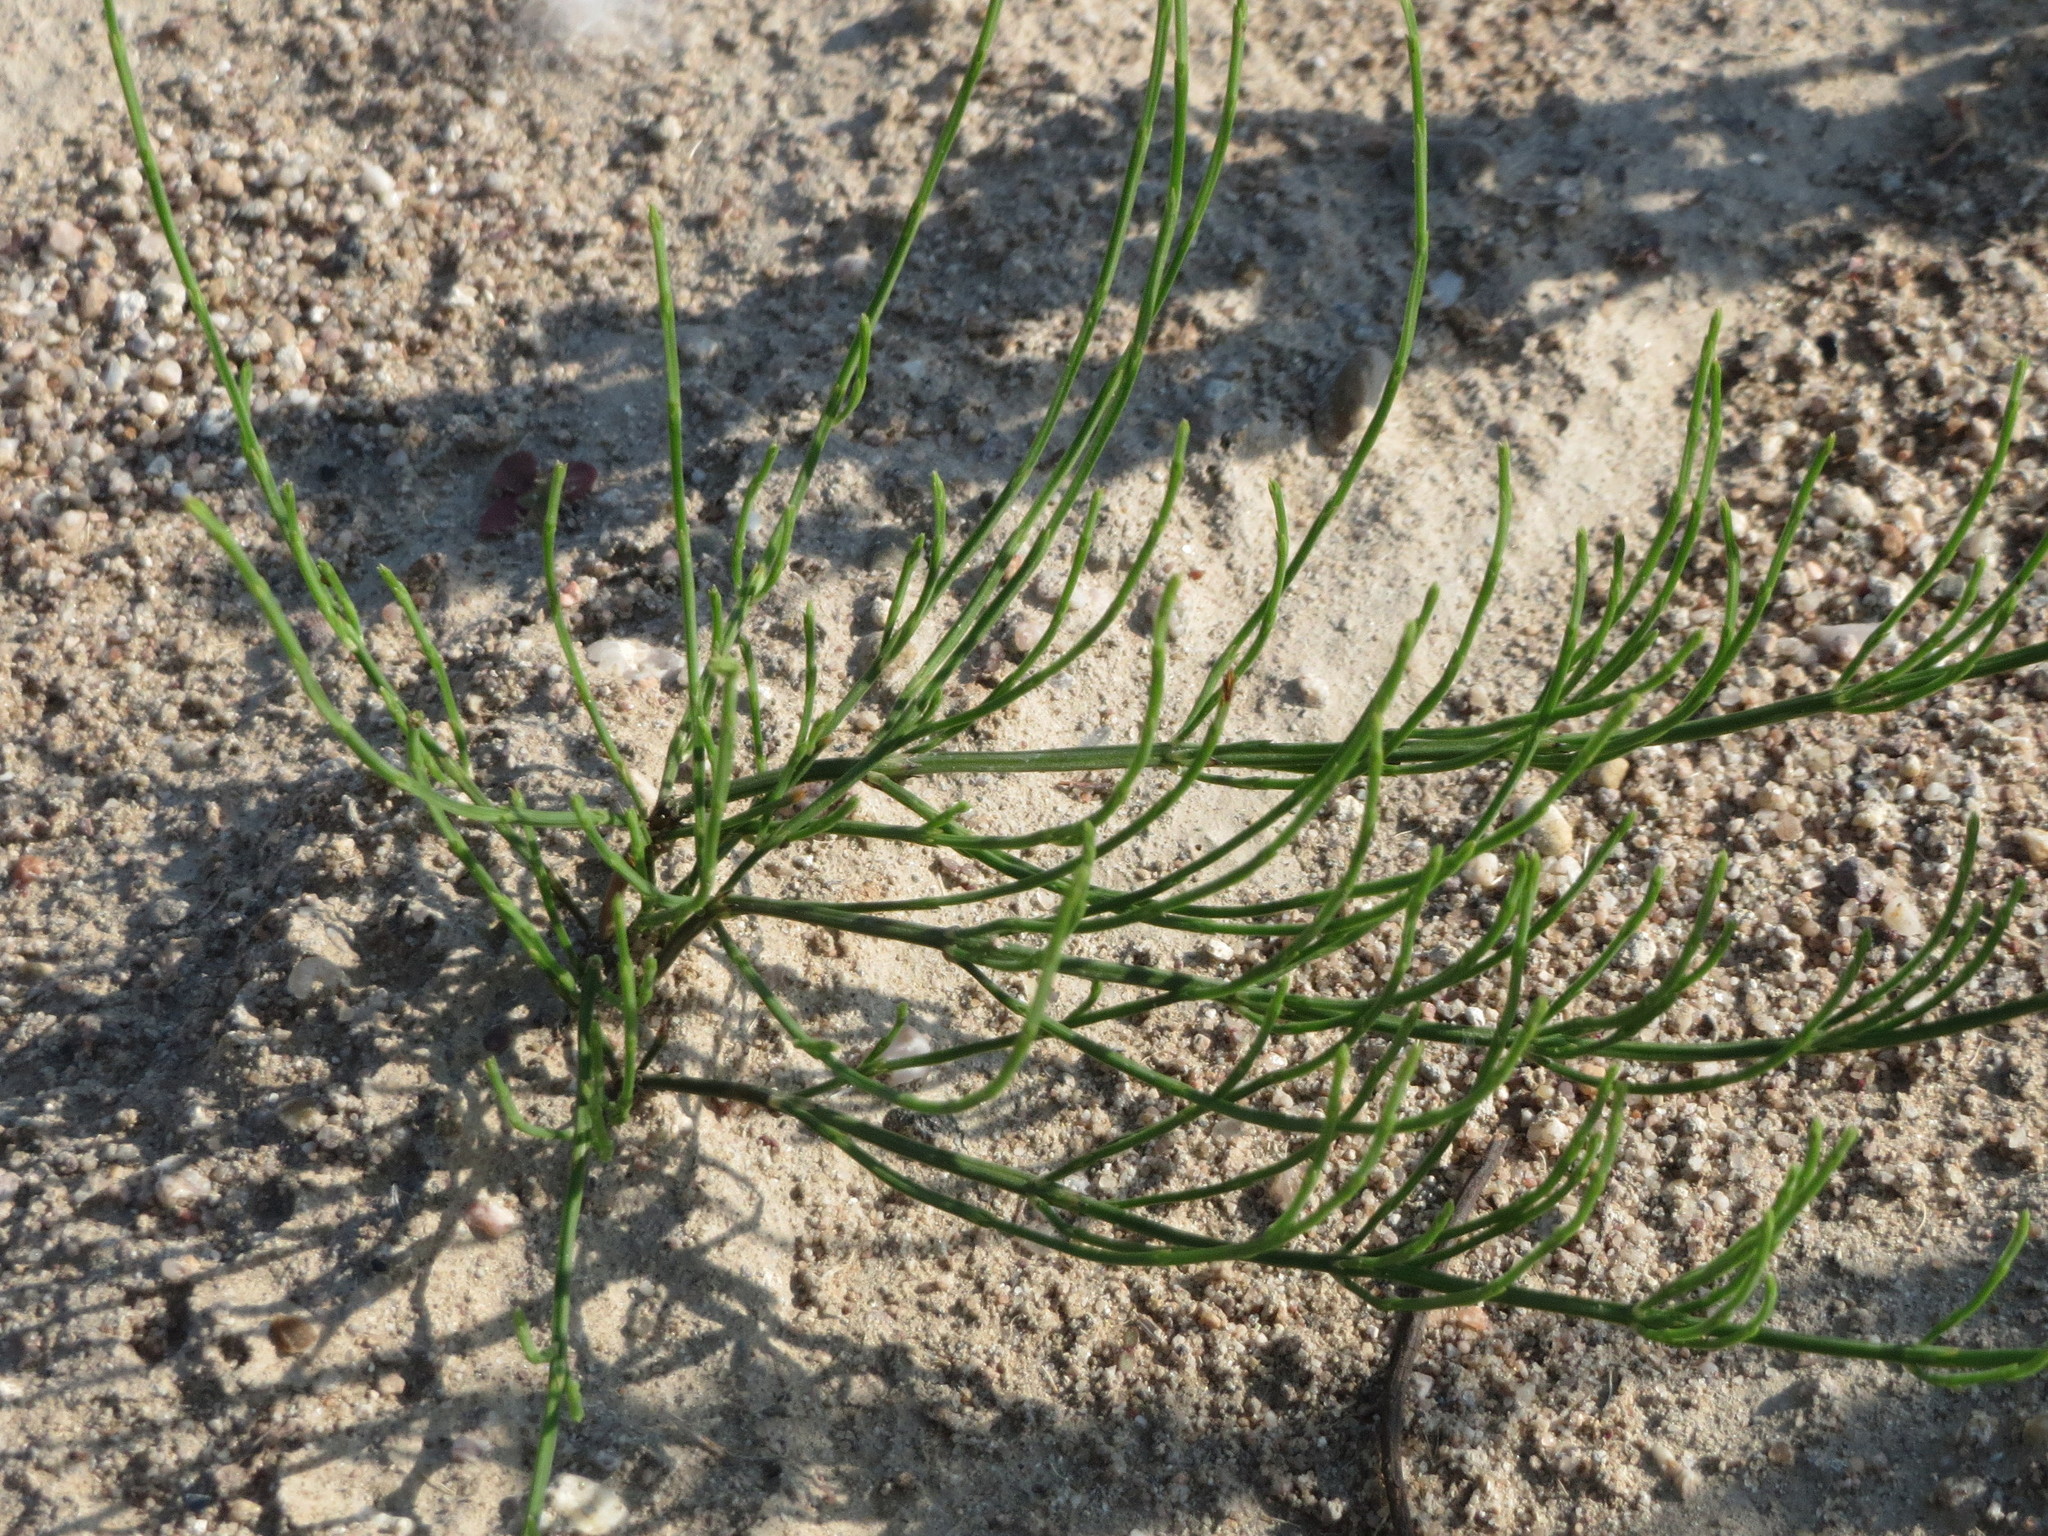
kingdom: Plantae
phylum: Tracheophyta
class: Polypodiopsida
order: Equisetales
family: Equisetaceae
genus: Equisetum
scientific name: Equisetum arvense
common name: Field horsetail
